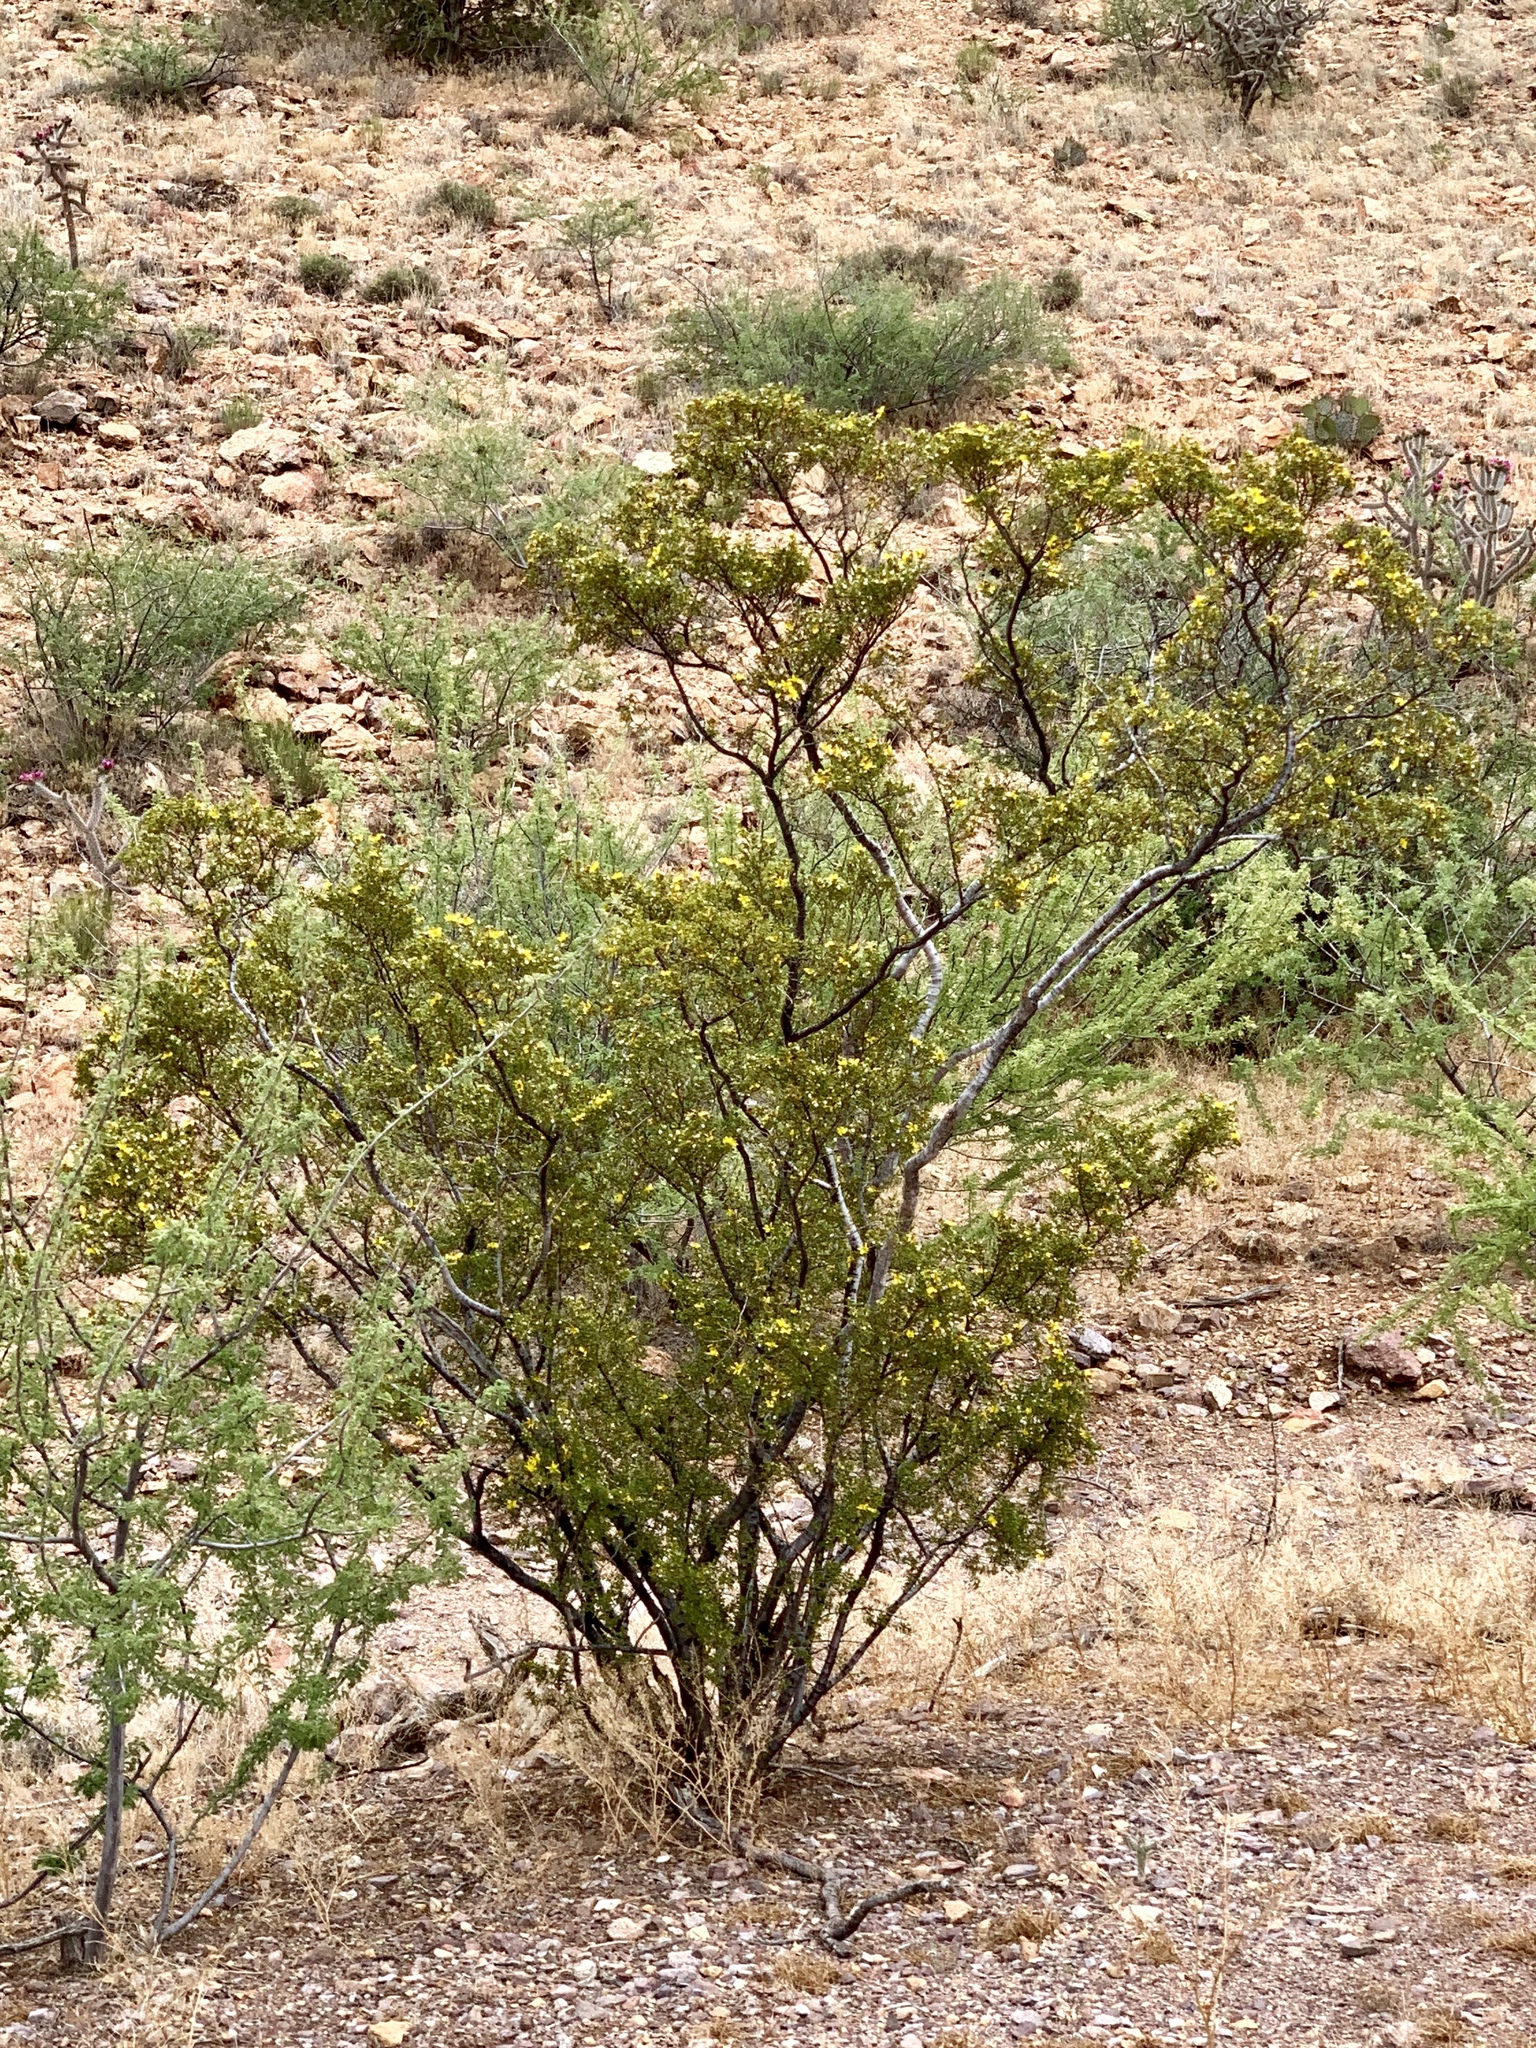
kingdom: Plantae
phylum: Tracheophyta
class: Magnoliopsida
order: Zygophyllales
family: Zygophyllaceae
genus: Larrea
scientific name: Larrea tridentata
